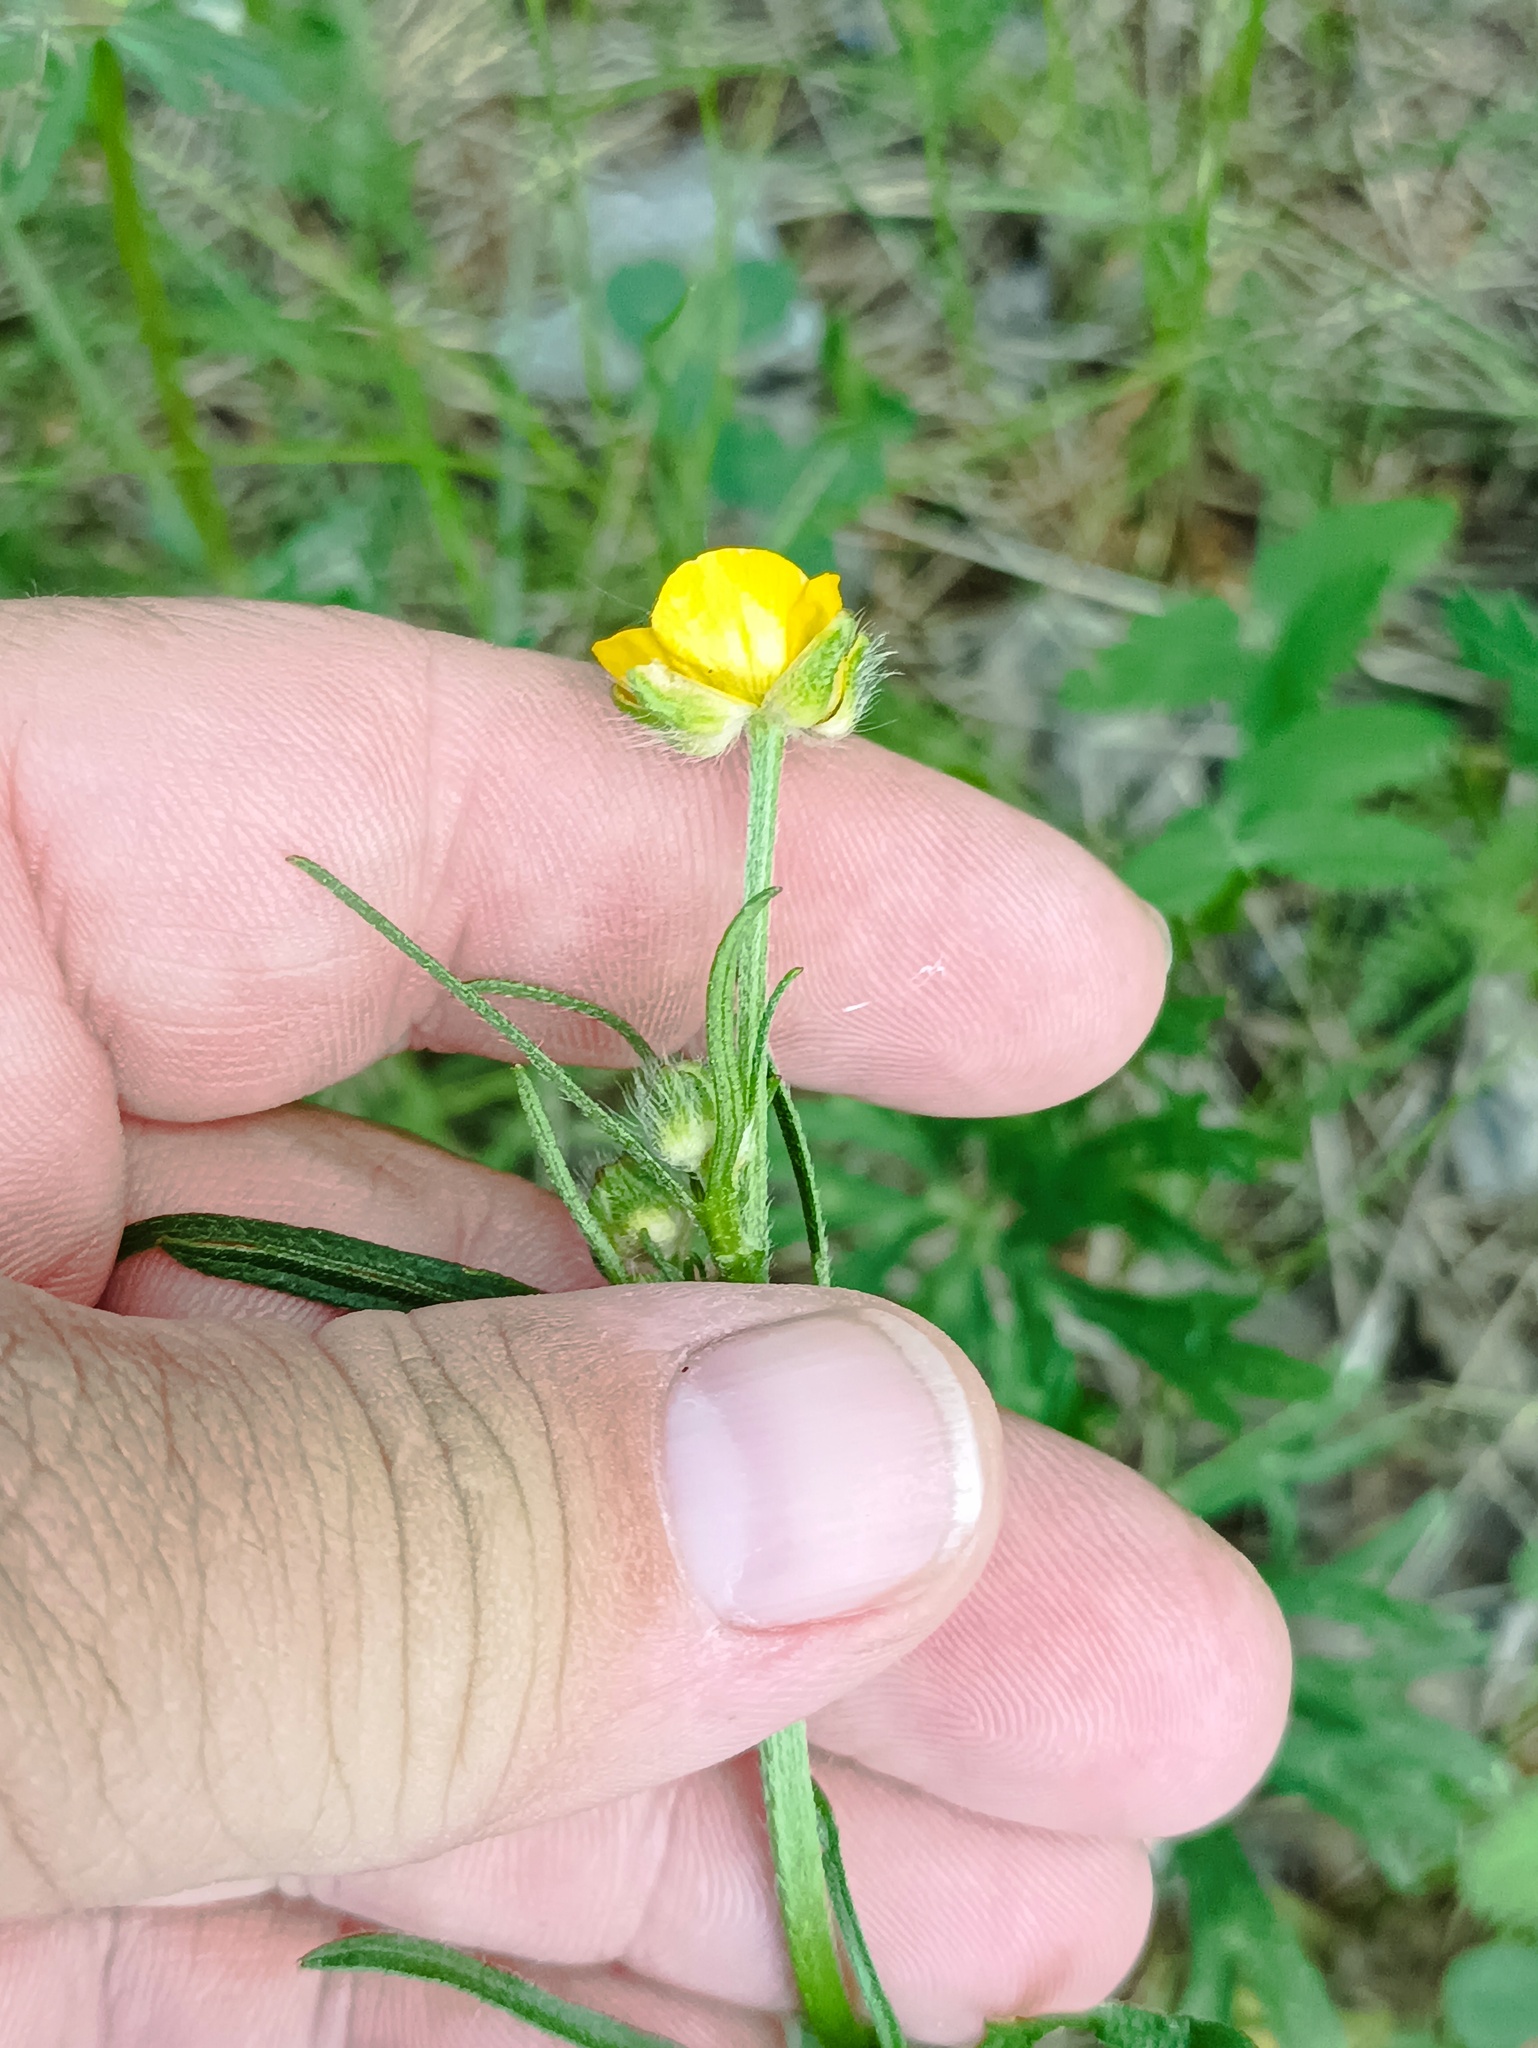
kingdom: Plantae
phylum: Tracheophyta
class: Magnoliopsida
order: Ranunculales
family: Ranunculaceae
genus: Ranunculus
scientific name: Ranunculus polyanthemos
